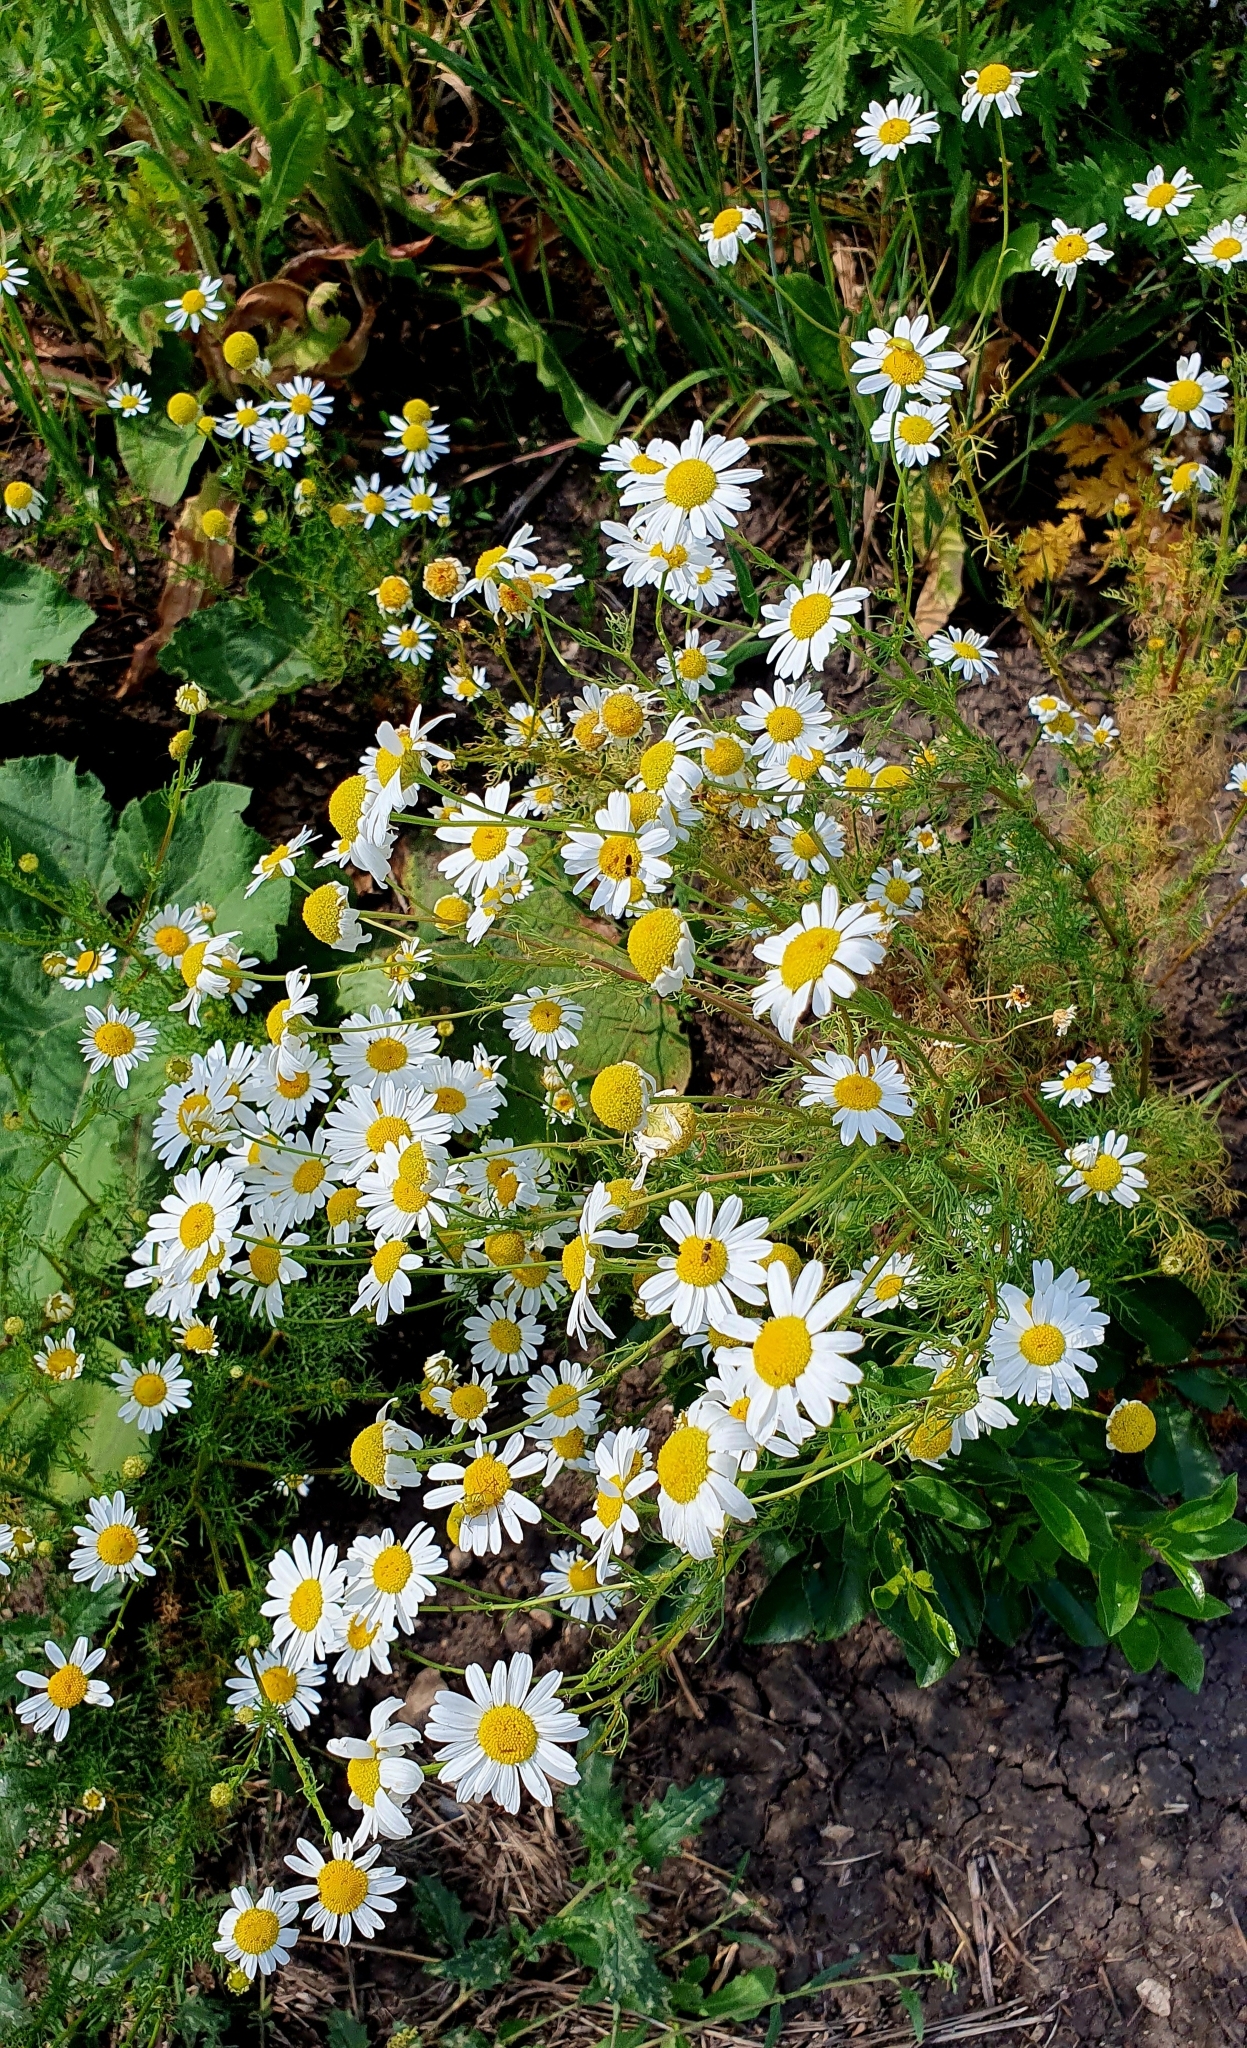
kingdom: Plantae
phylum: Tracheophyta
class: Magnoliopsida
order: Asterales
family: Asteraceae
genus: Tripleurospermum
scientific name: Tripleurospermum inodorum
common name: Scentless mayweed
